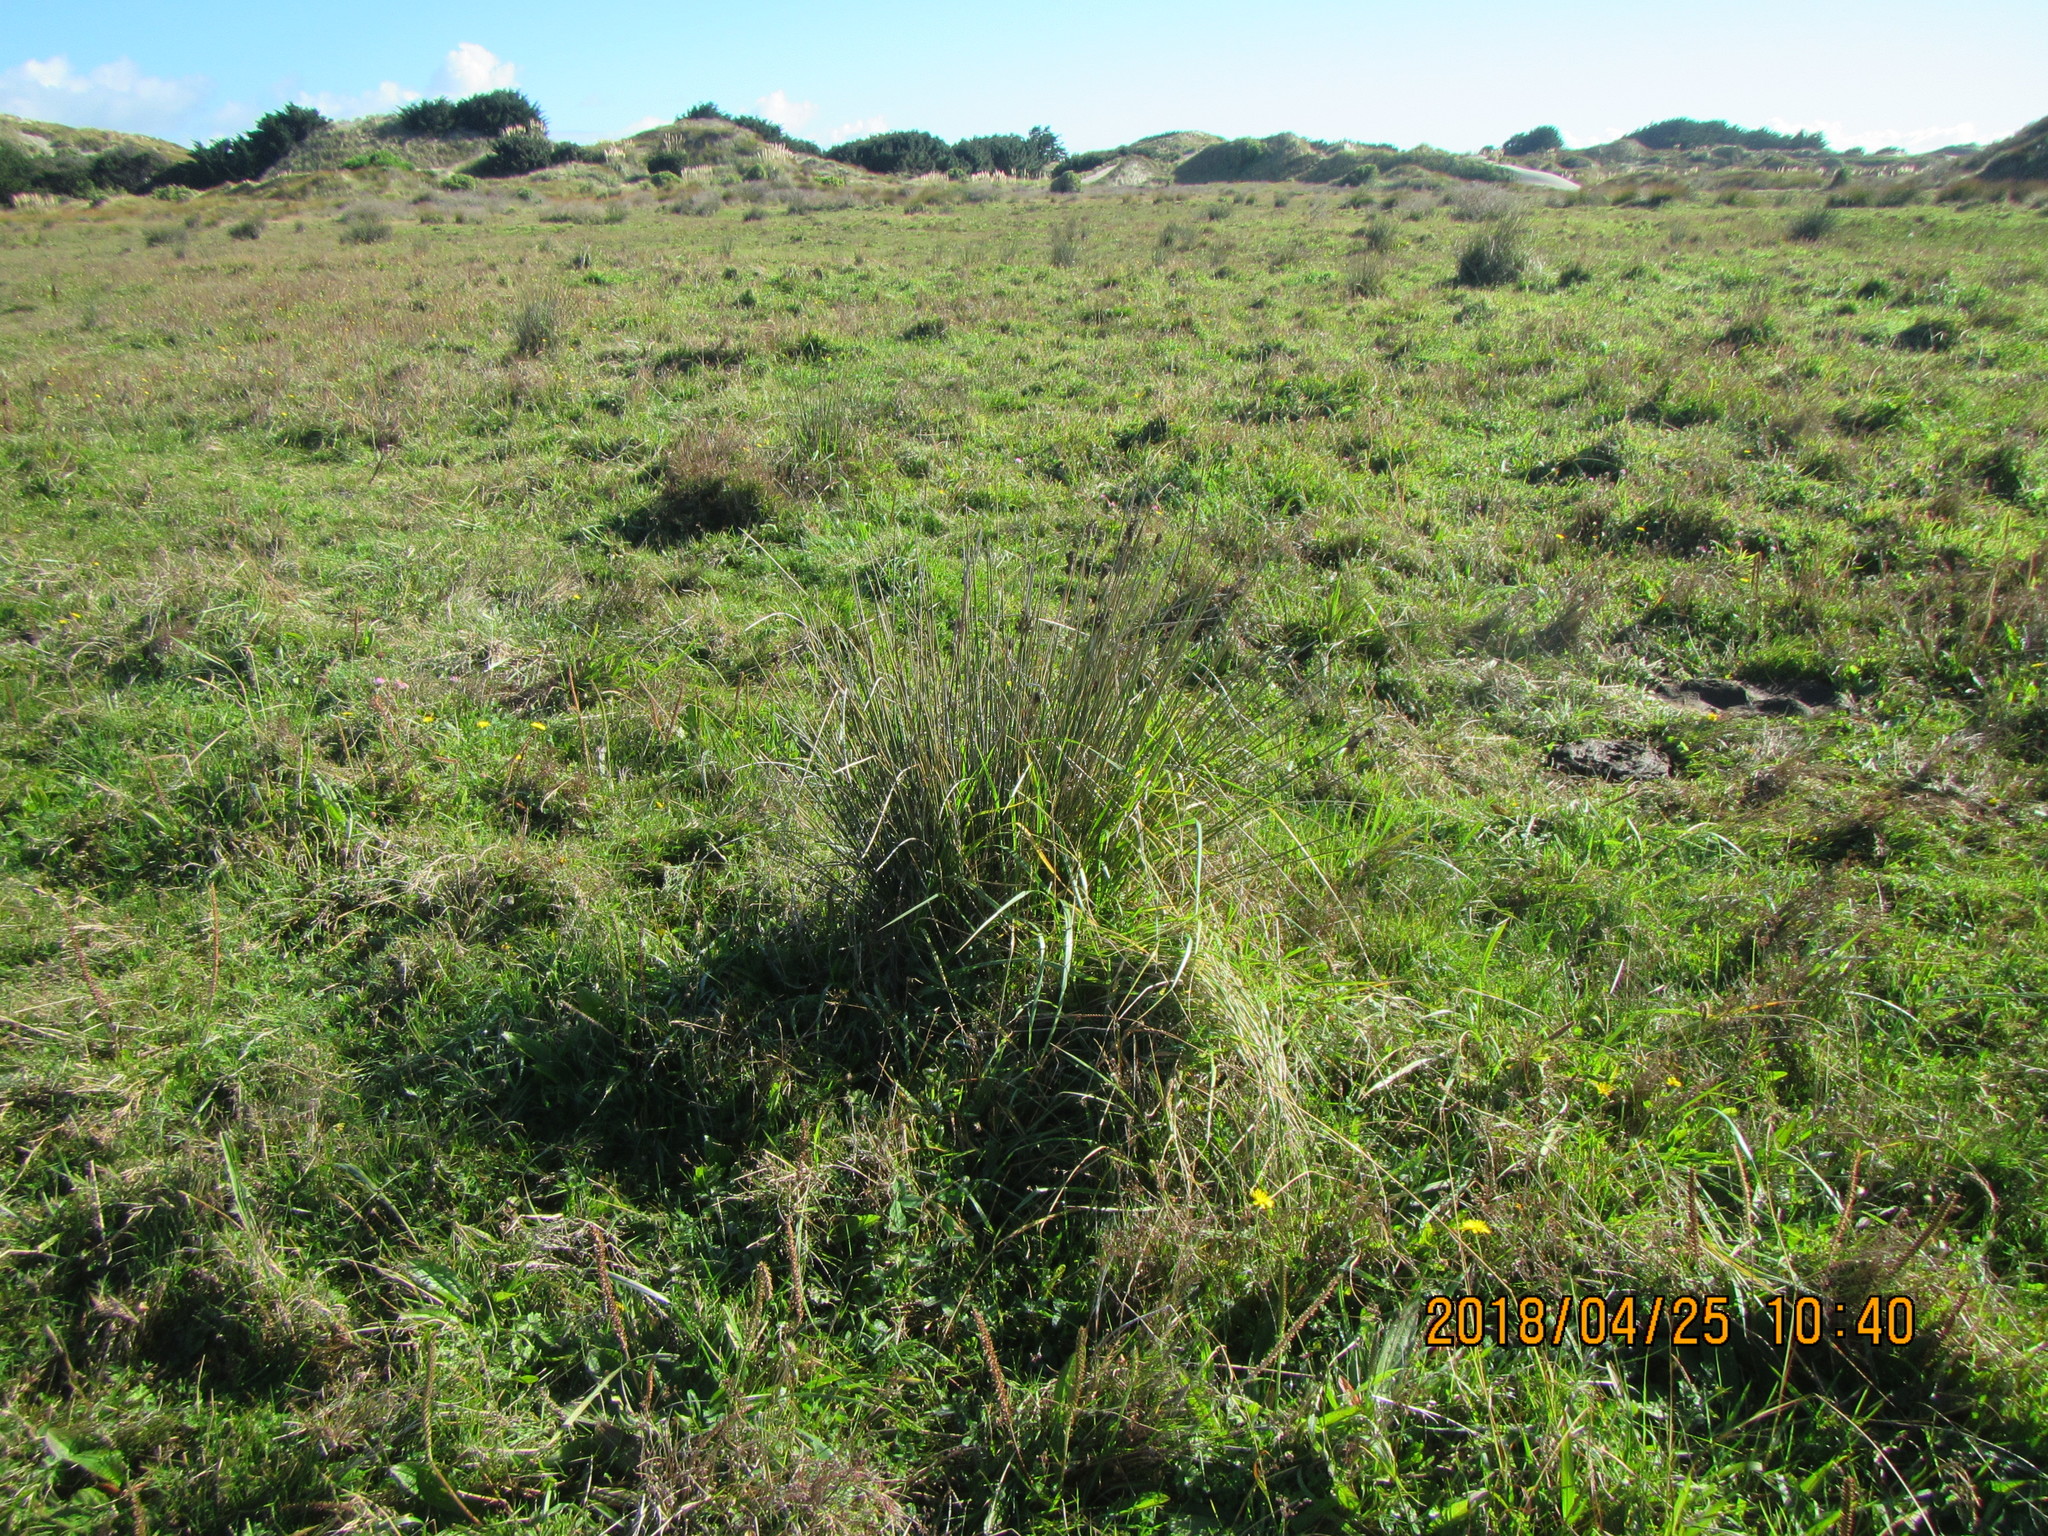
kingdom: Plantae
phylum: Tracheophyta
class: Liliopsida
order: Poales
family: Juncaceae
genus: Juncus
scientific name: Juncus kraussii
